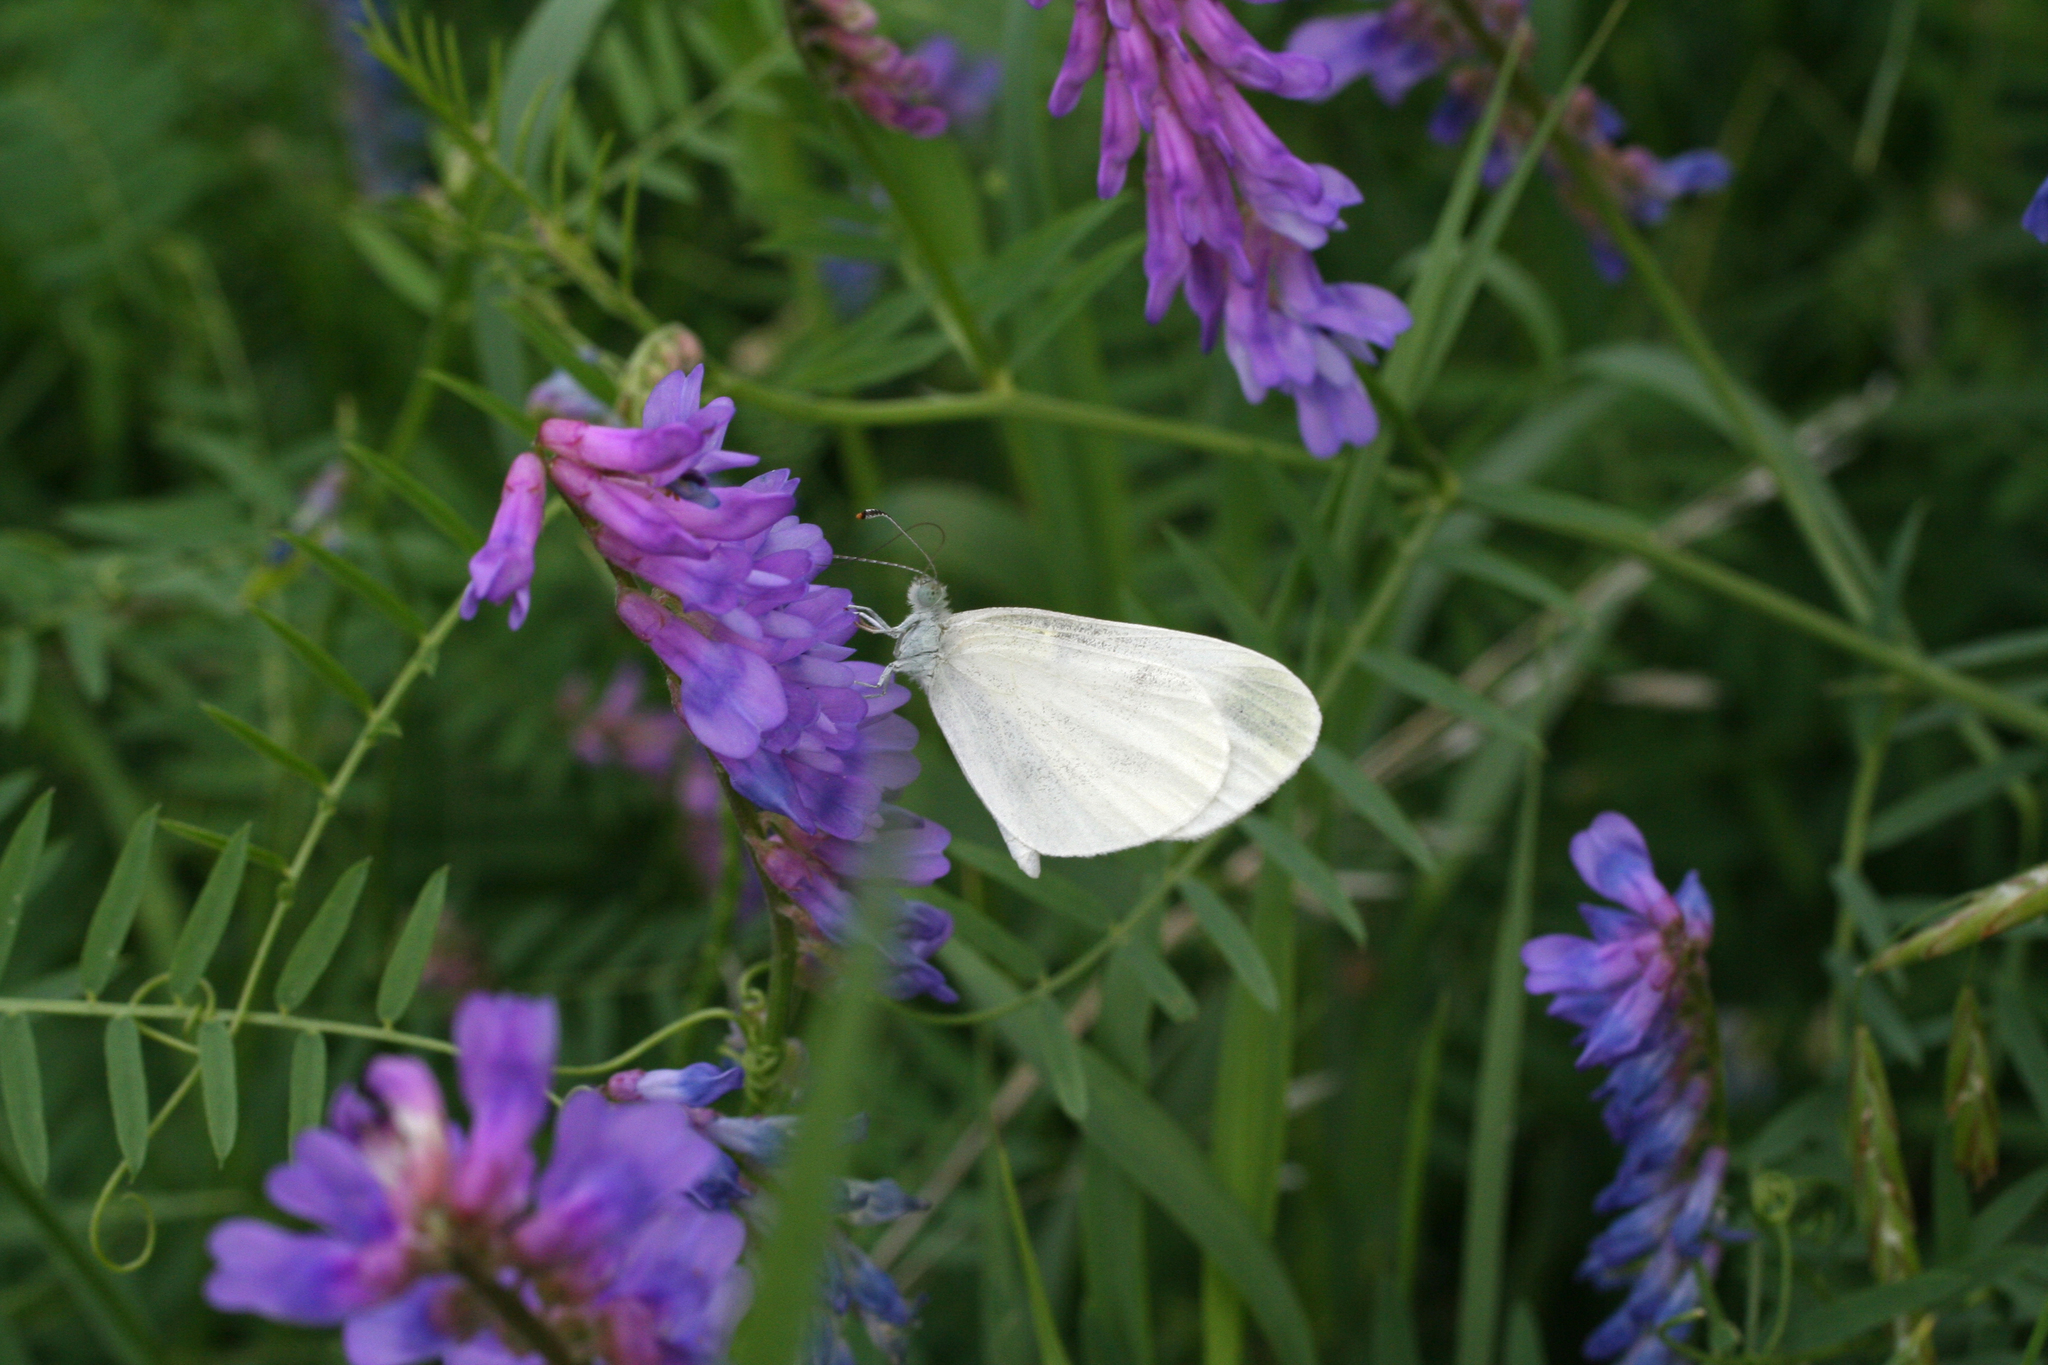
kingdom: Plantae
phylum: Tracheophyta
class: Magnoliopsida
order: Fabales
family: Fabaceae
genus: Vicia
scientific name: Vicia cracca
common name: Bird vetch
